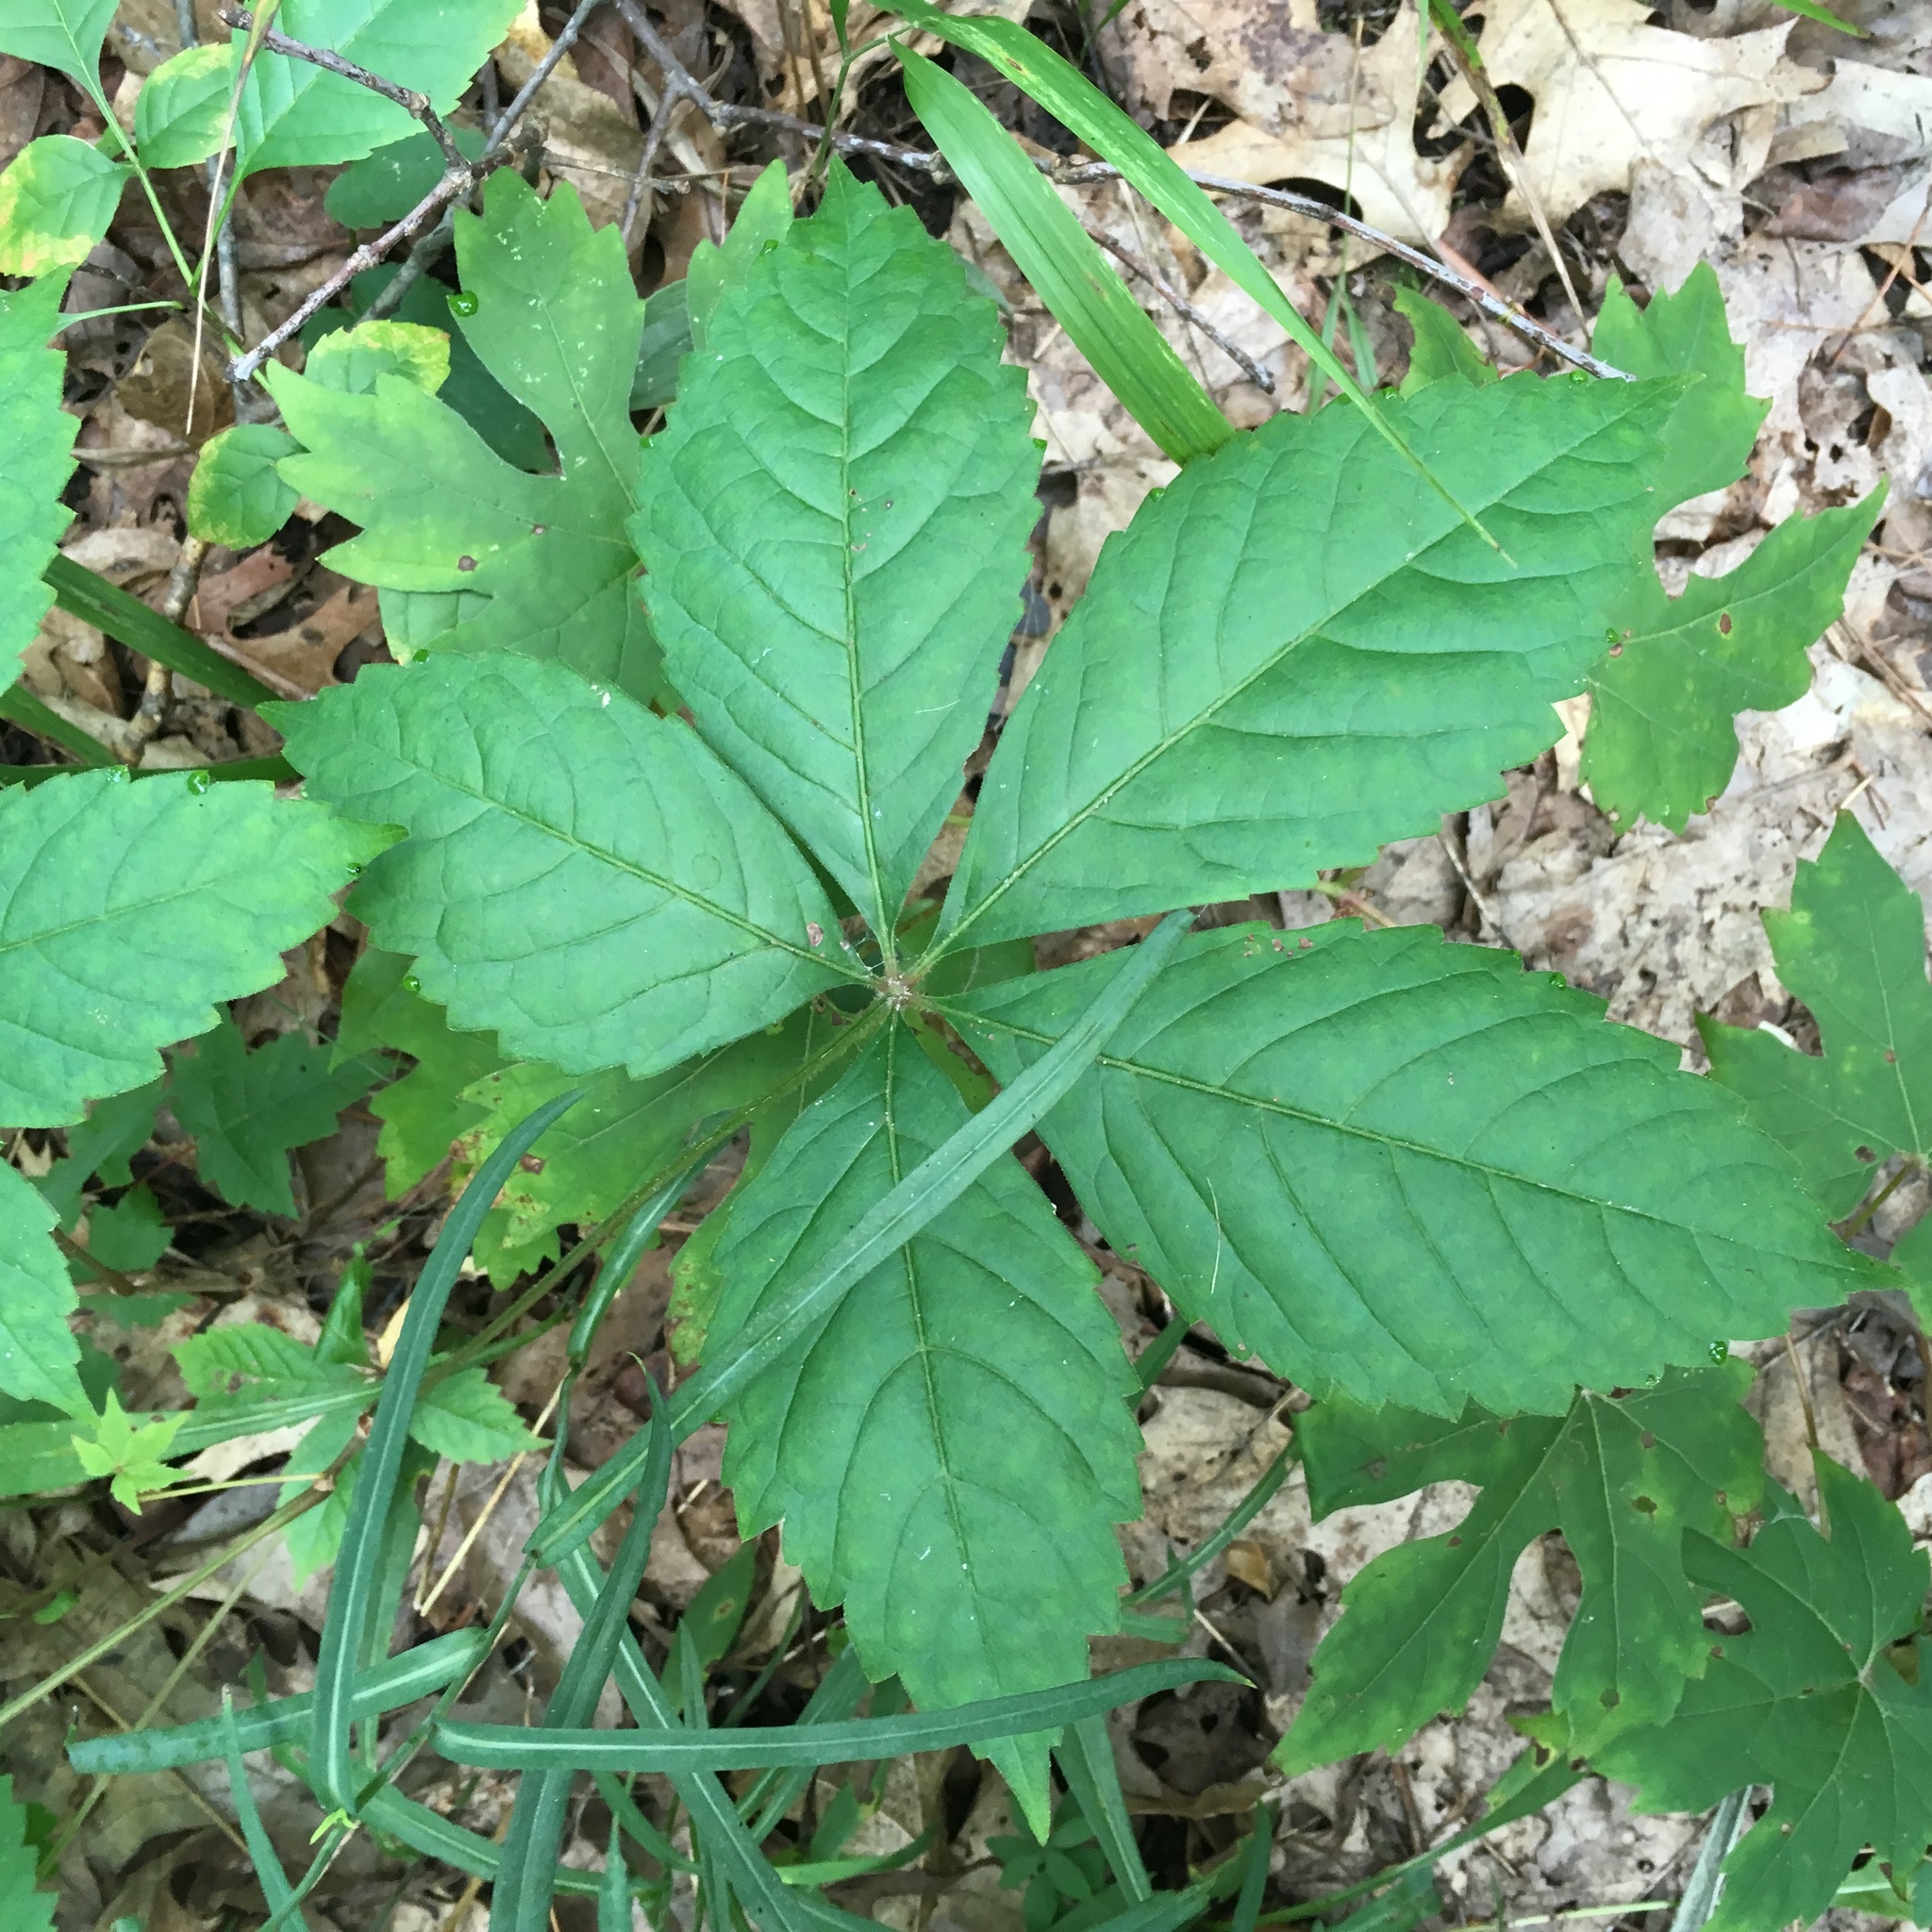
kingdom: Plantae
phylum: Tracheophyta
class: Magnoliopsida
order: Vitales
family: Vitaceae
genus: Parthenocissus
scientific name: Parthenocissus inserta
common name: False virginia-creeper
